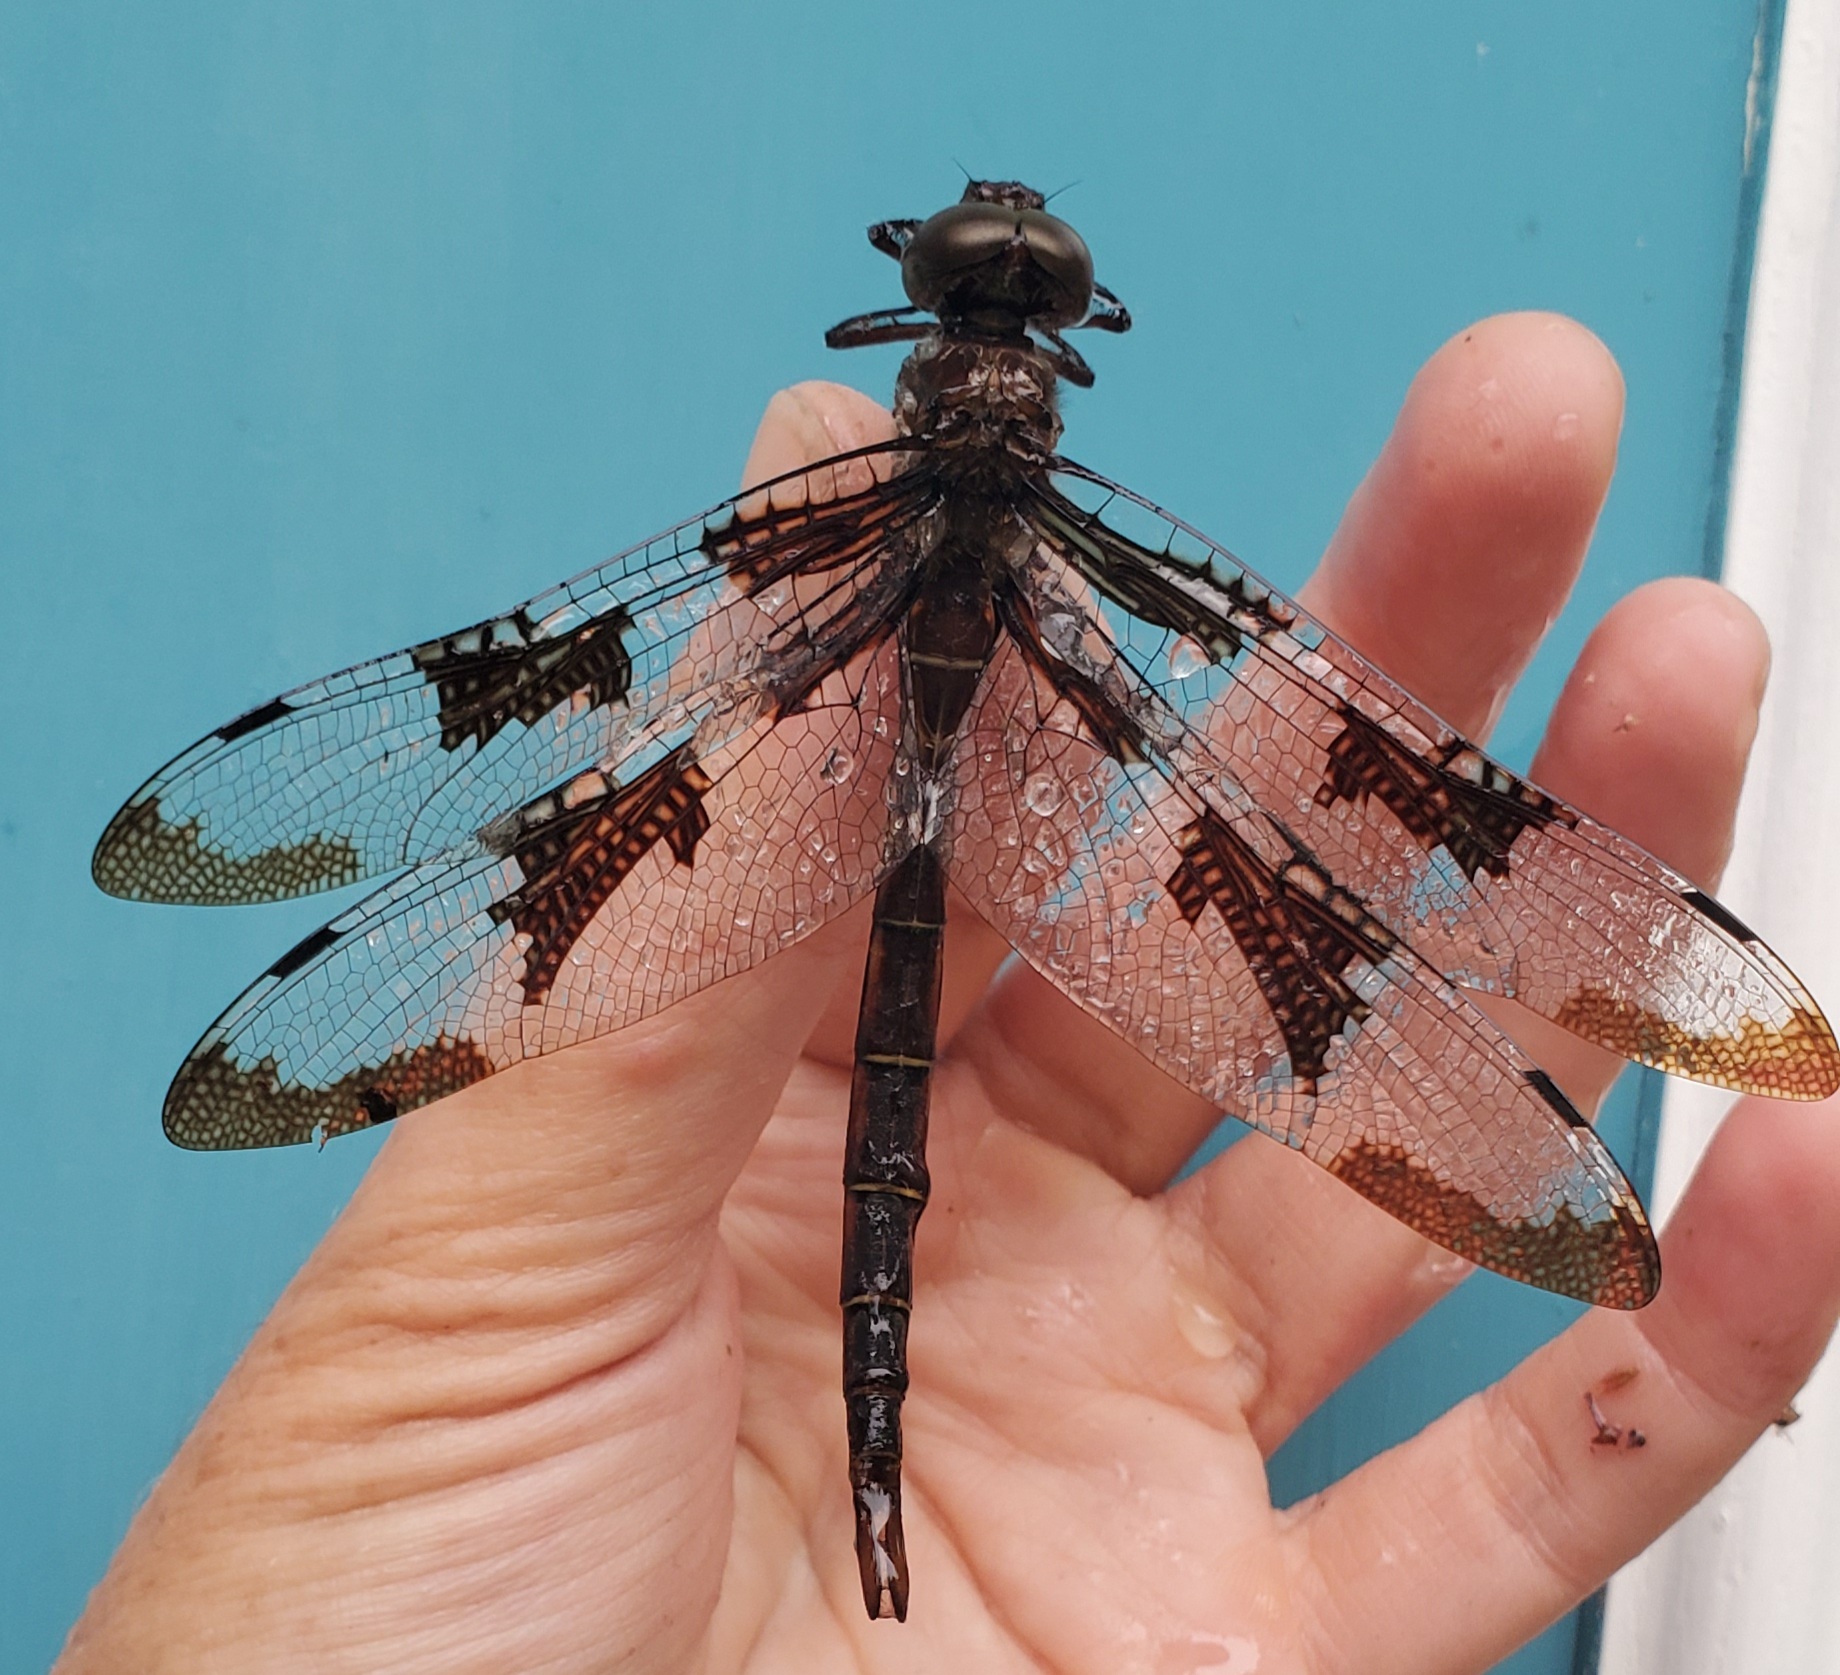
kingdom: Animalia
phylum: Arthropoda
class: Insecta
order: Odonata
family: Corduliidae
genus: Epitheca
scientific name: Epitheca princeps
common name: Prince baskettail
